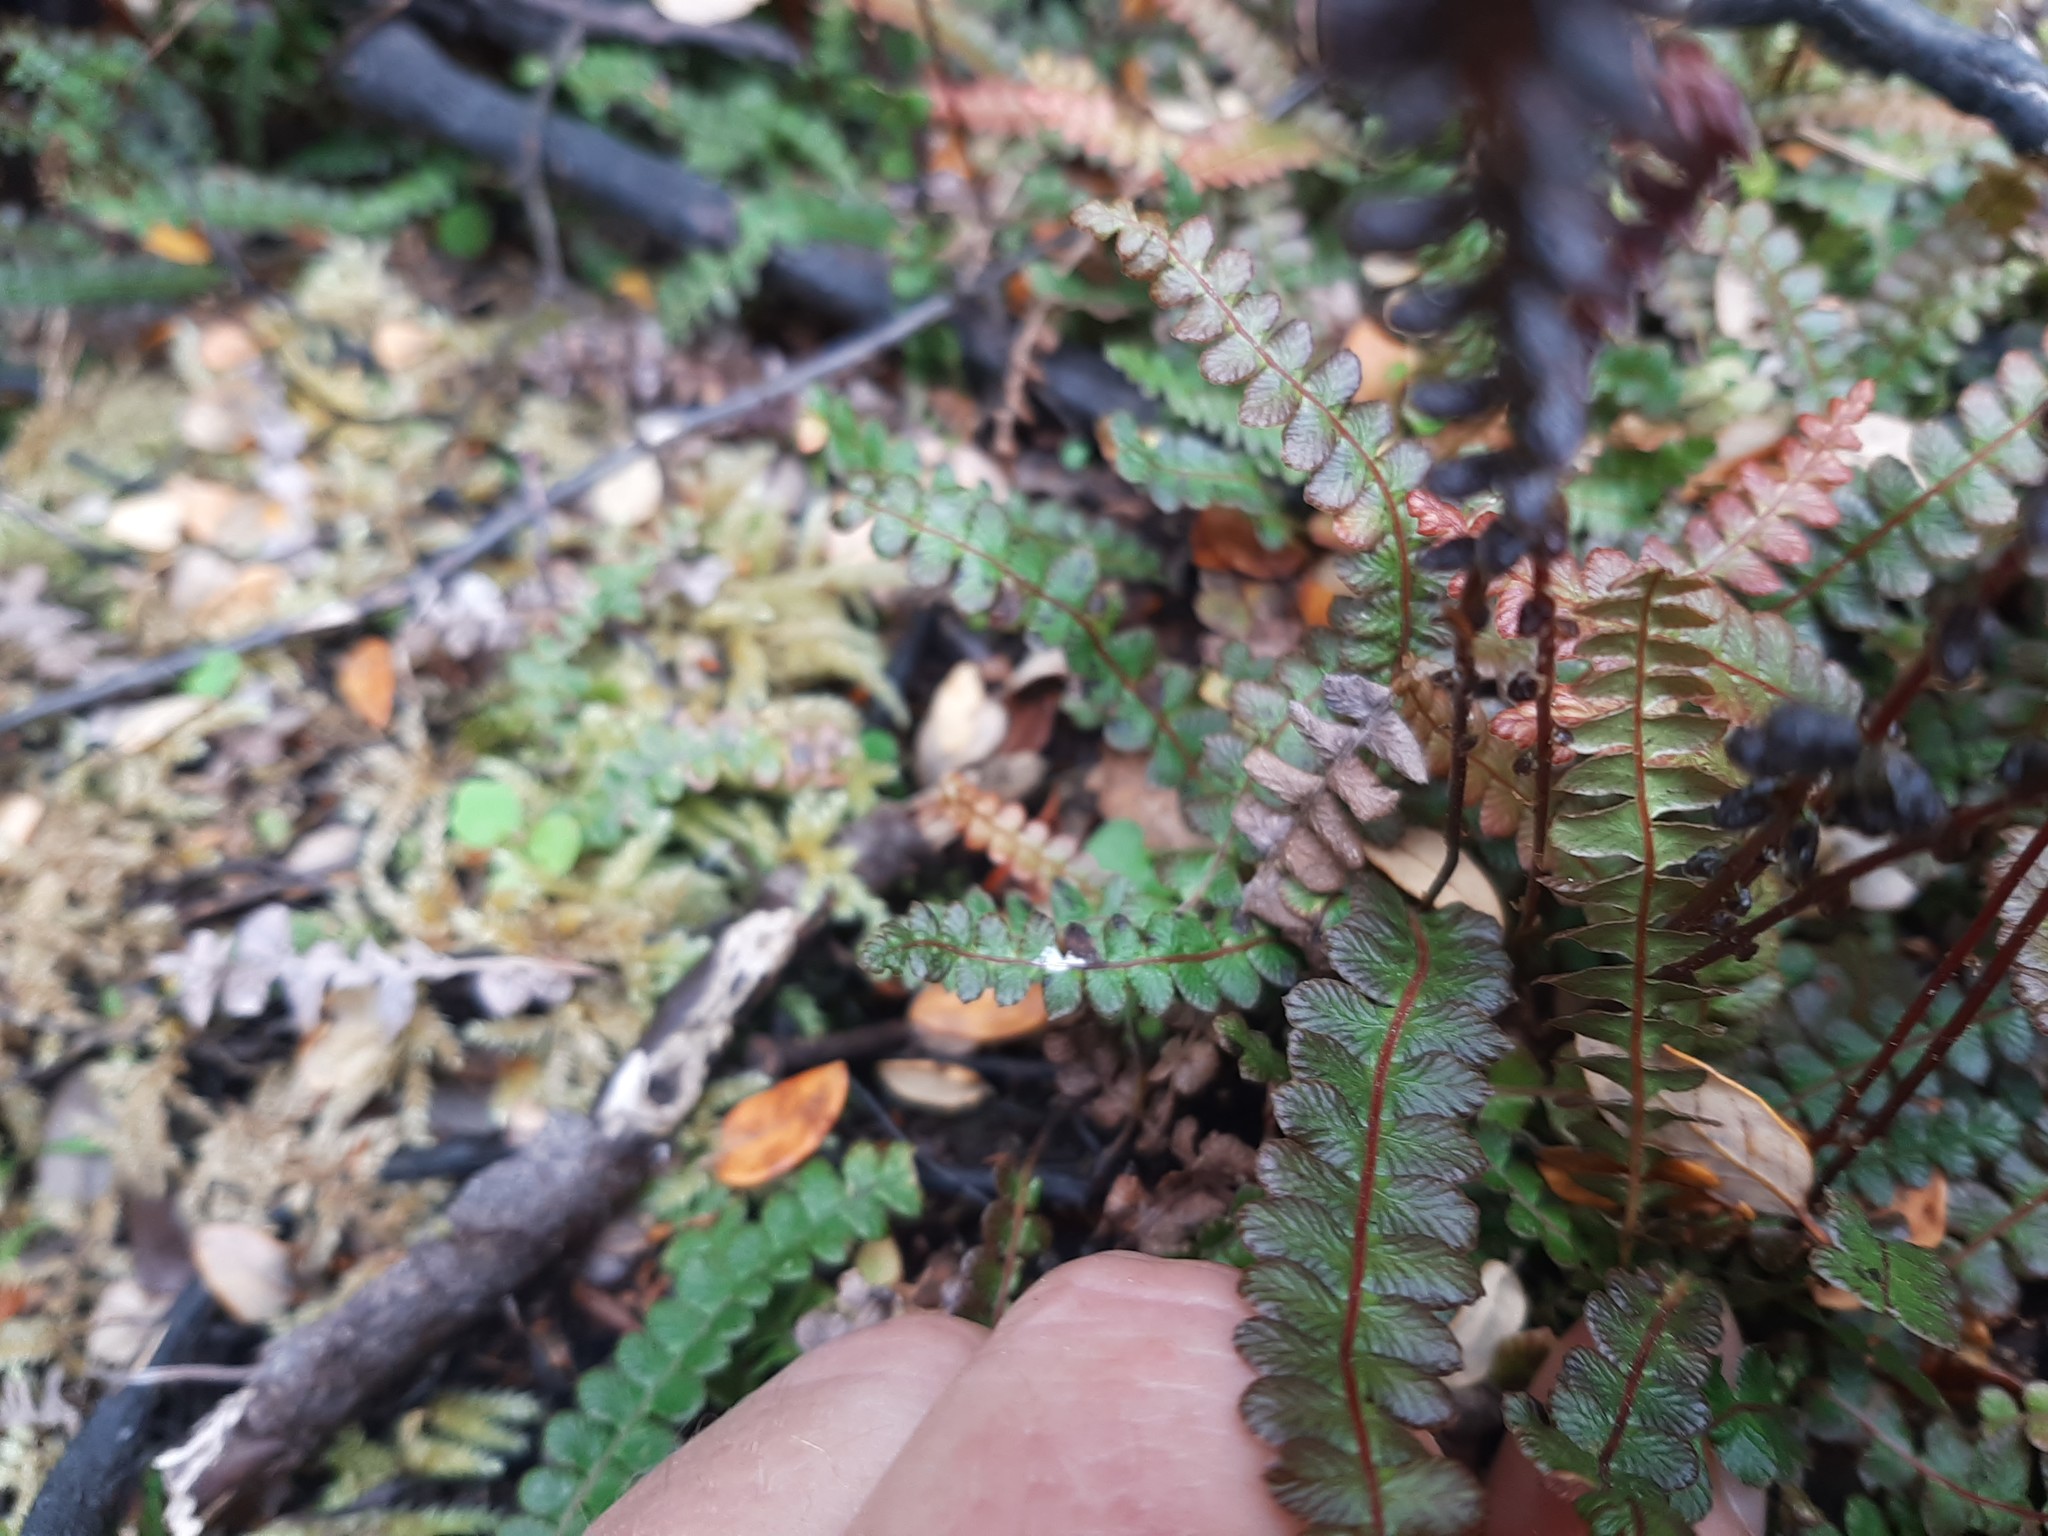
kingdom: Plantae
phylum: Tracheophyta
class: Polypodiopsida
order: Polypodiales
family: Blechnaceae
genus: Austroblechnum
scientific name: Austroblechnum penna-marina
